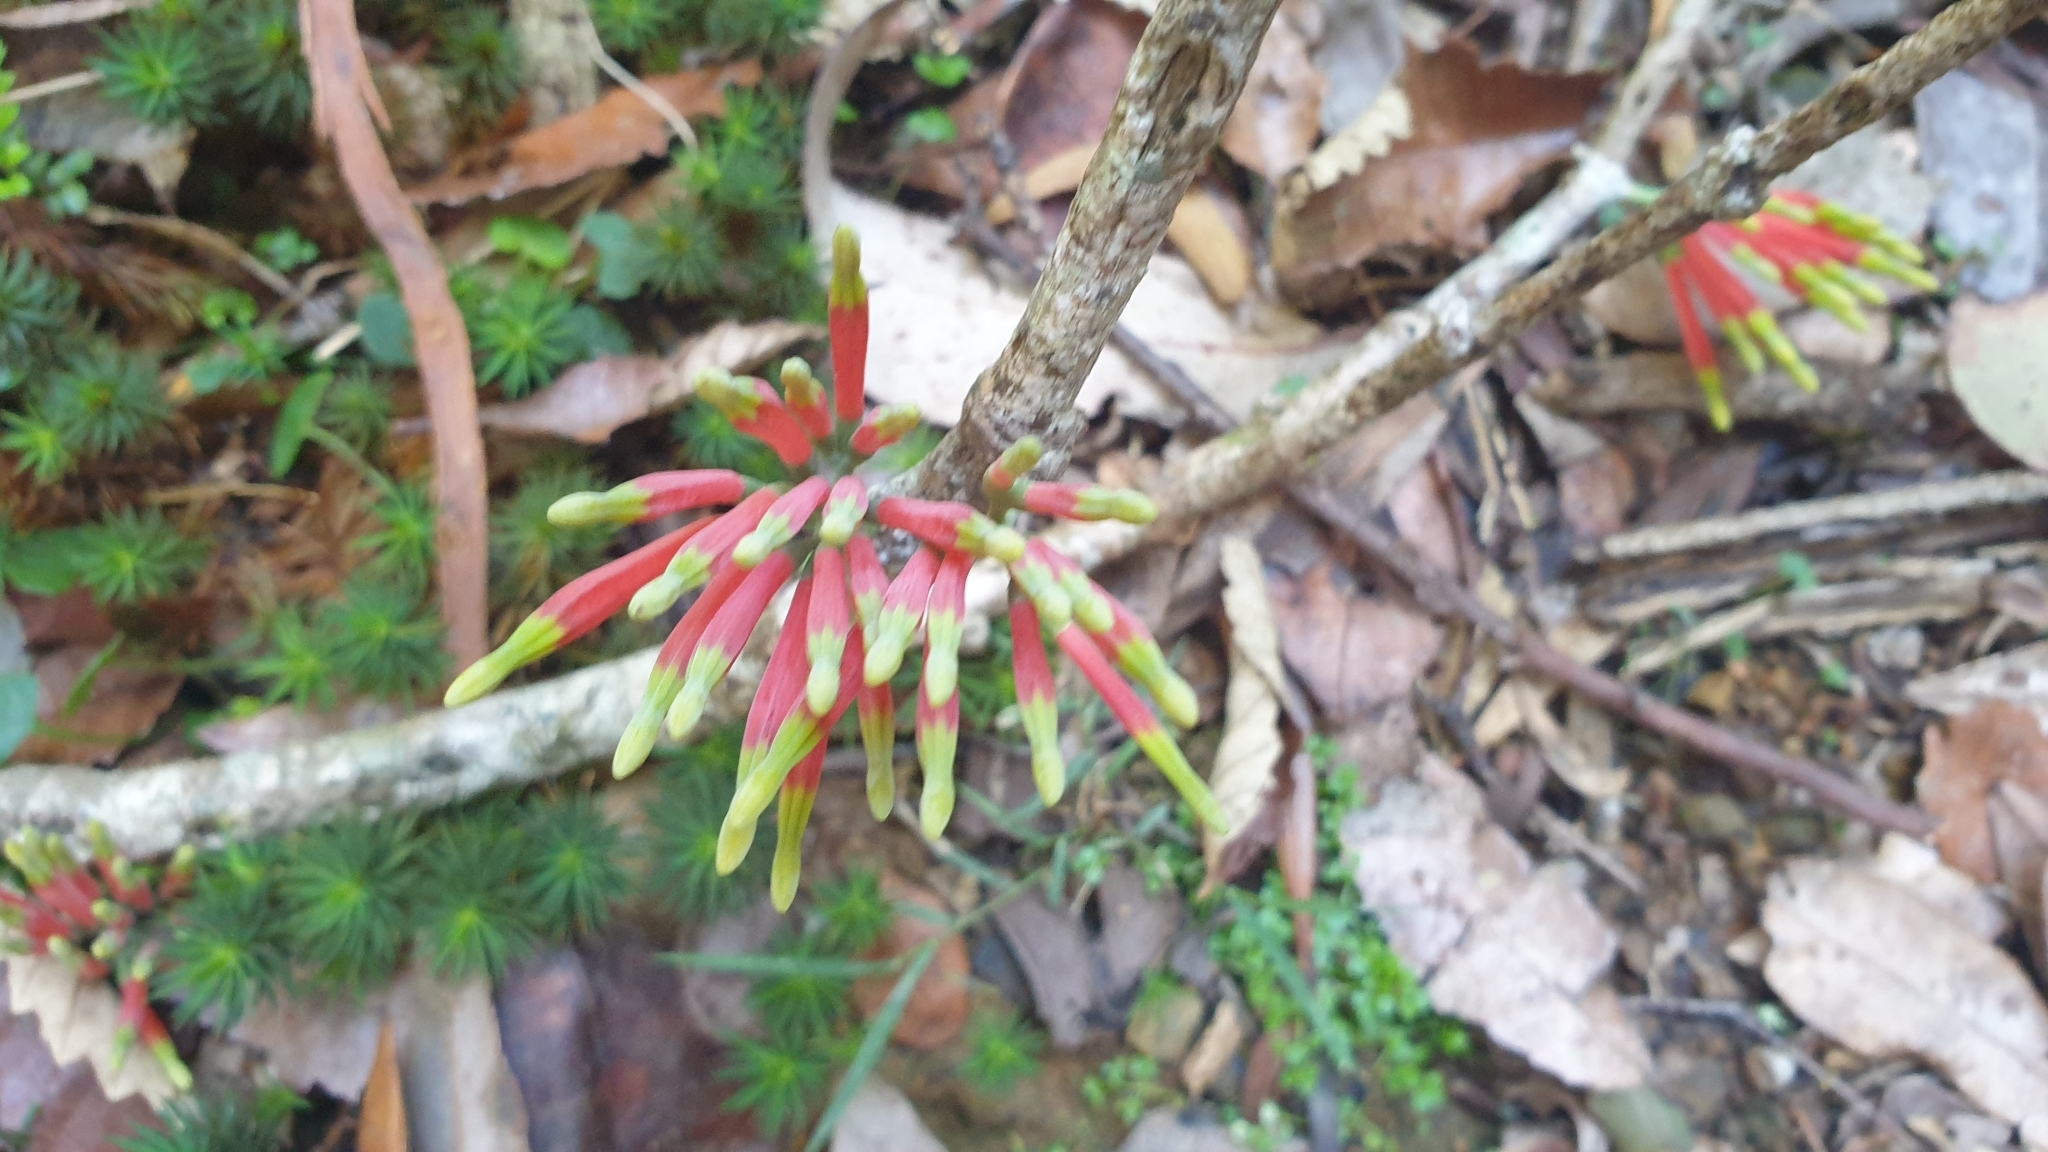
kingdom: Plantae
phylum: Tracheophyta
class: Magnoliopsida
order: Santalales
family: Loranthaceae
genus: Amylotheca
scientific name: Amylotheca dictyophleba
